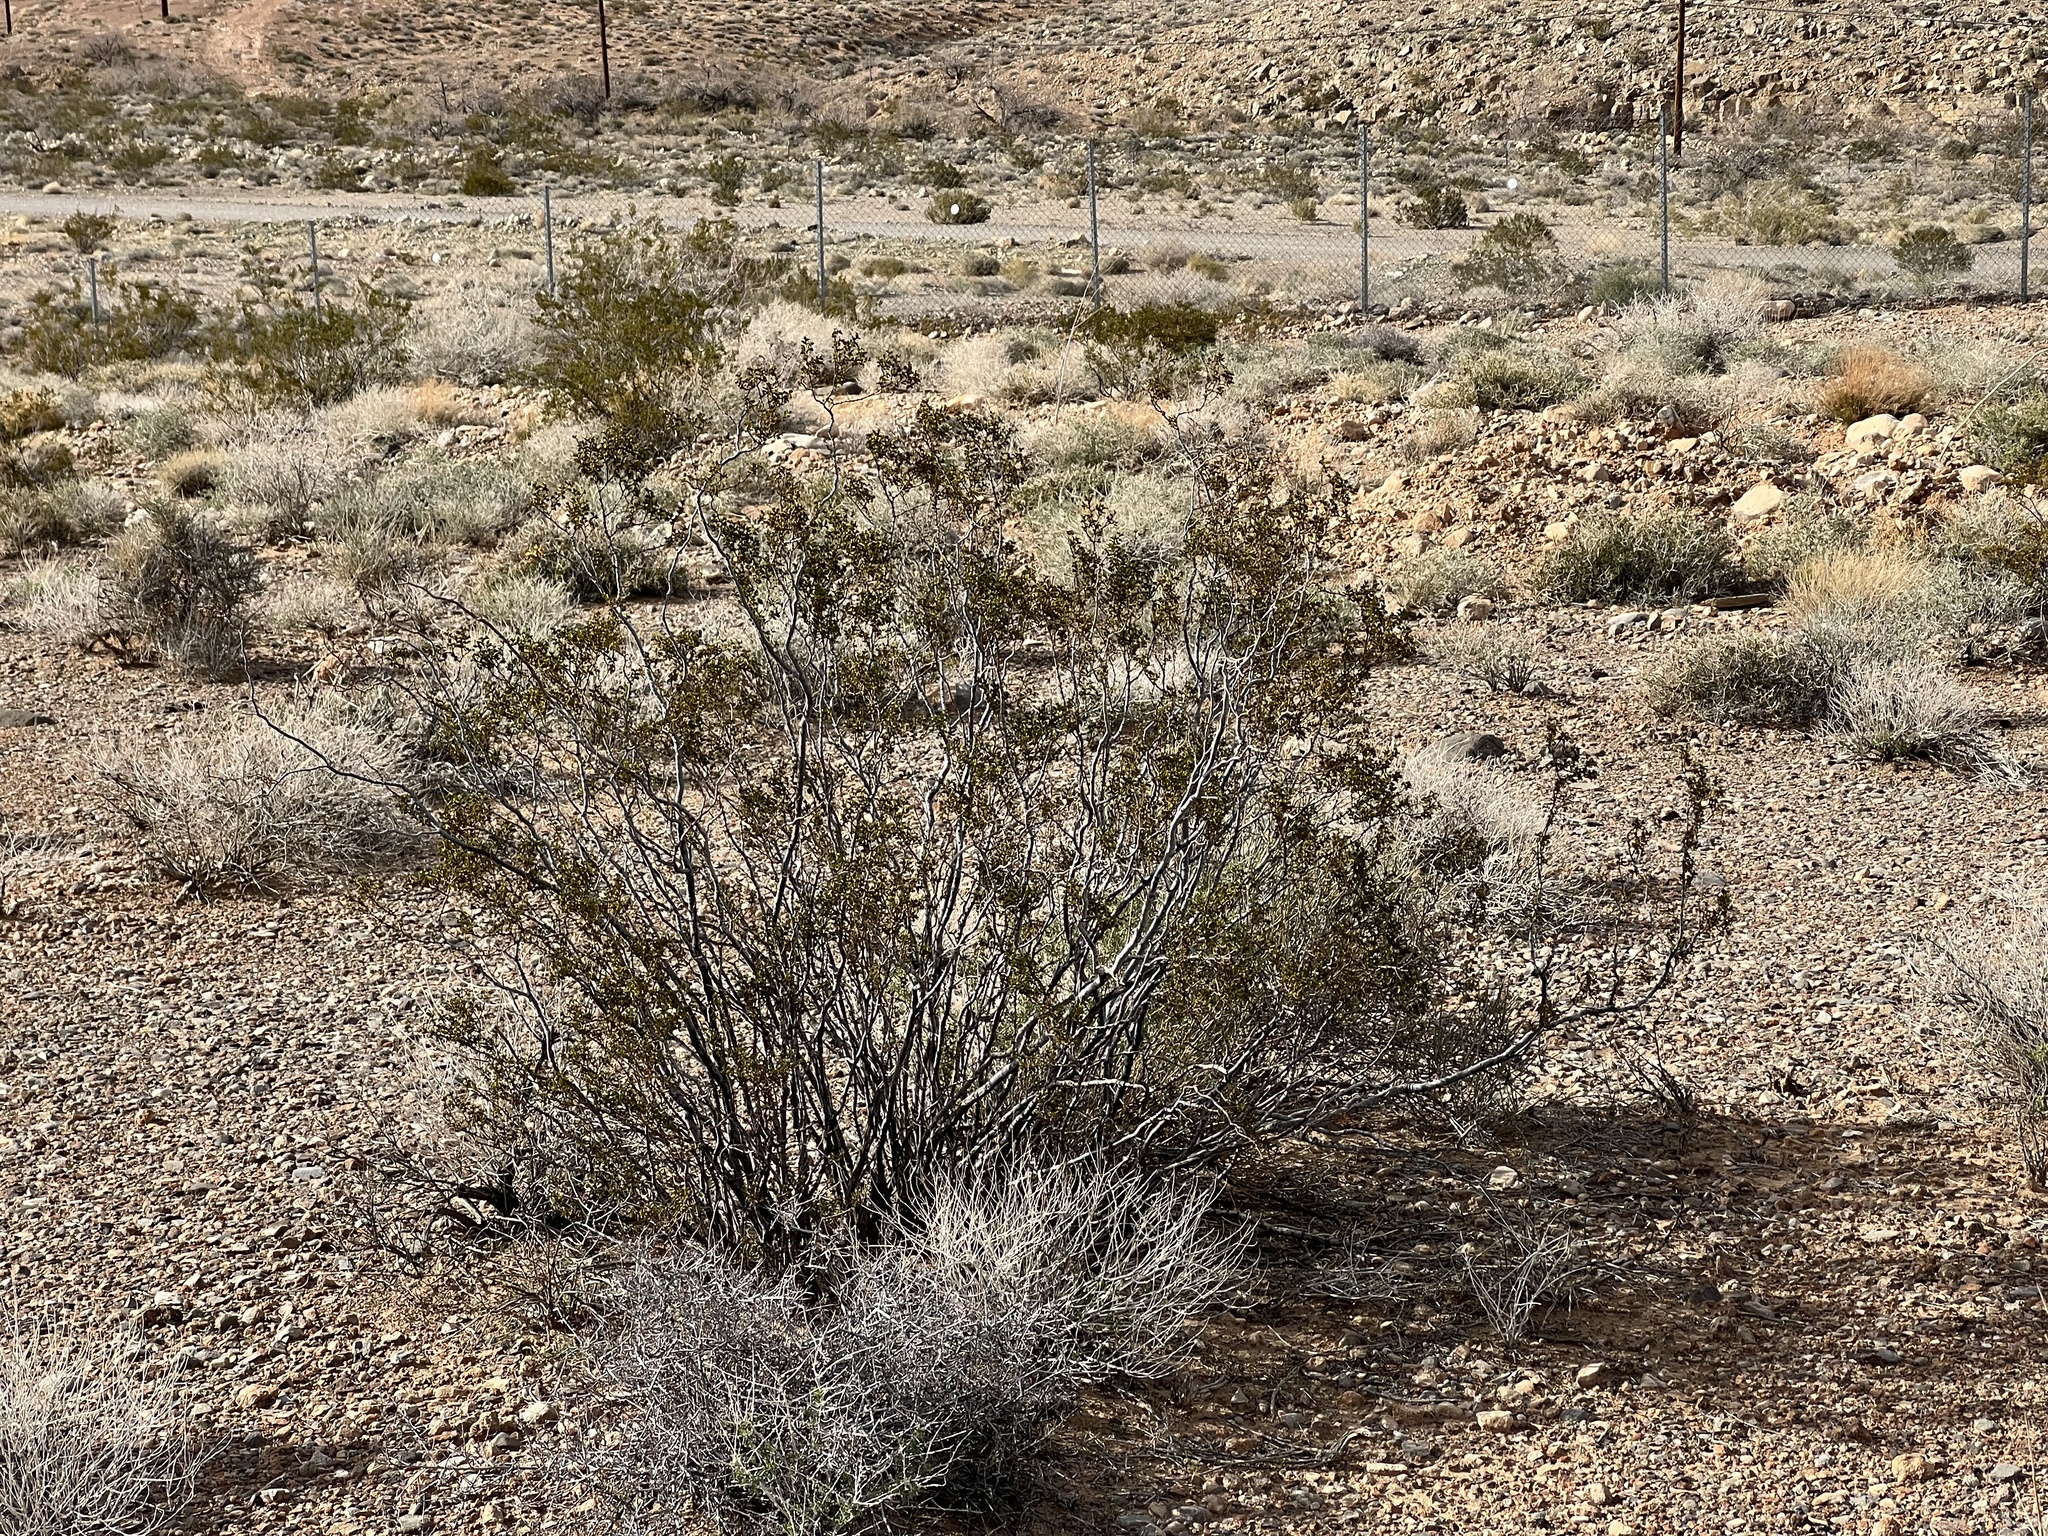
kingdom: Plantae
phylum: Tracheophyta
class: Magnoliopsida
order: Zygophyllales
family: Zygophyllaceae
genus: Larrea
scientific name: Larrea tridentata
